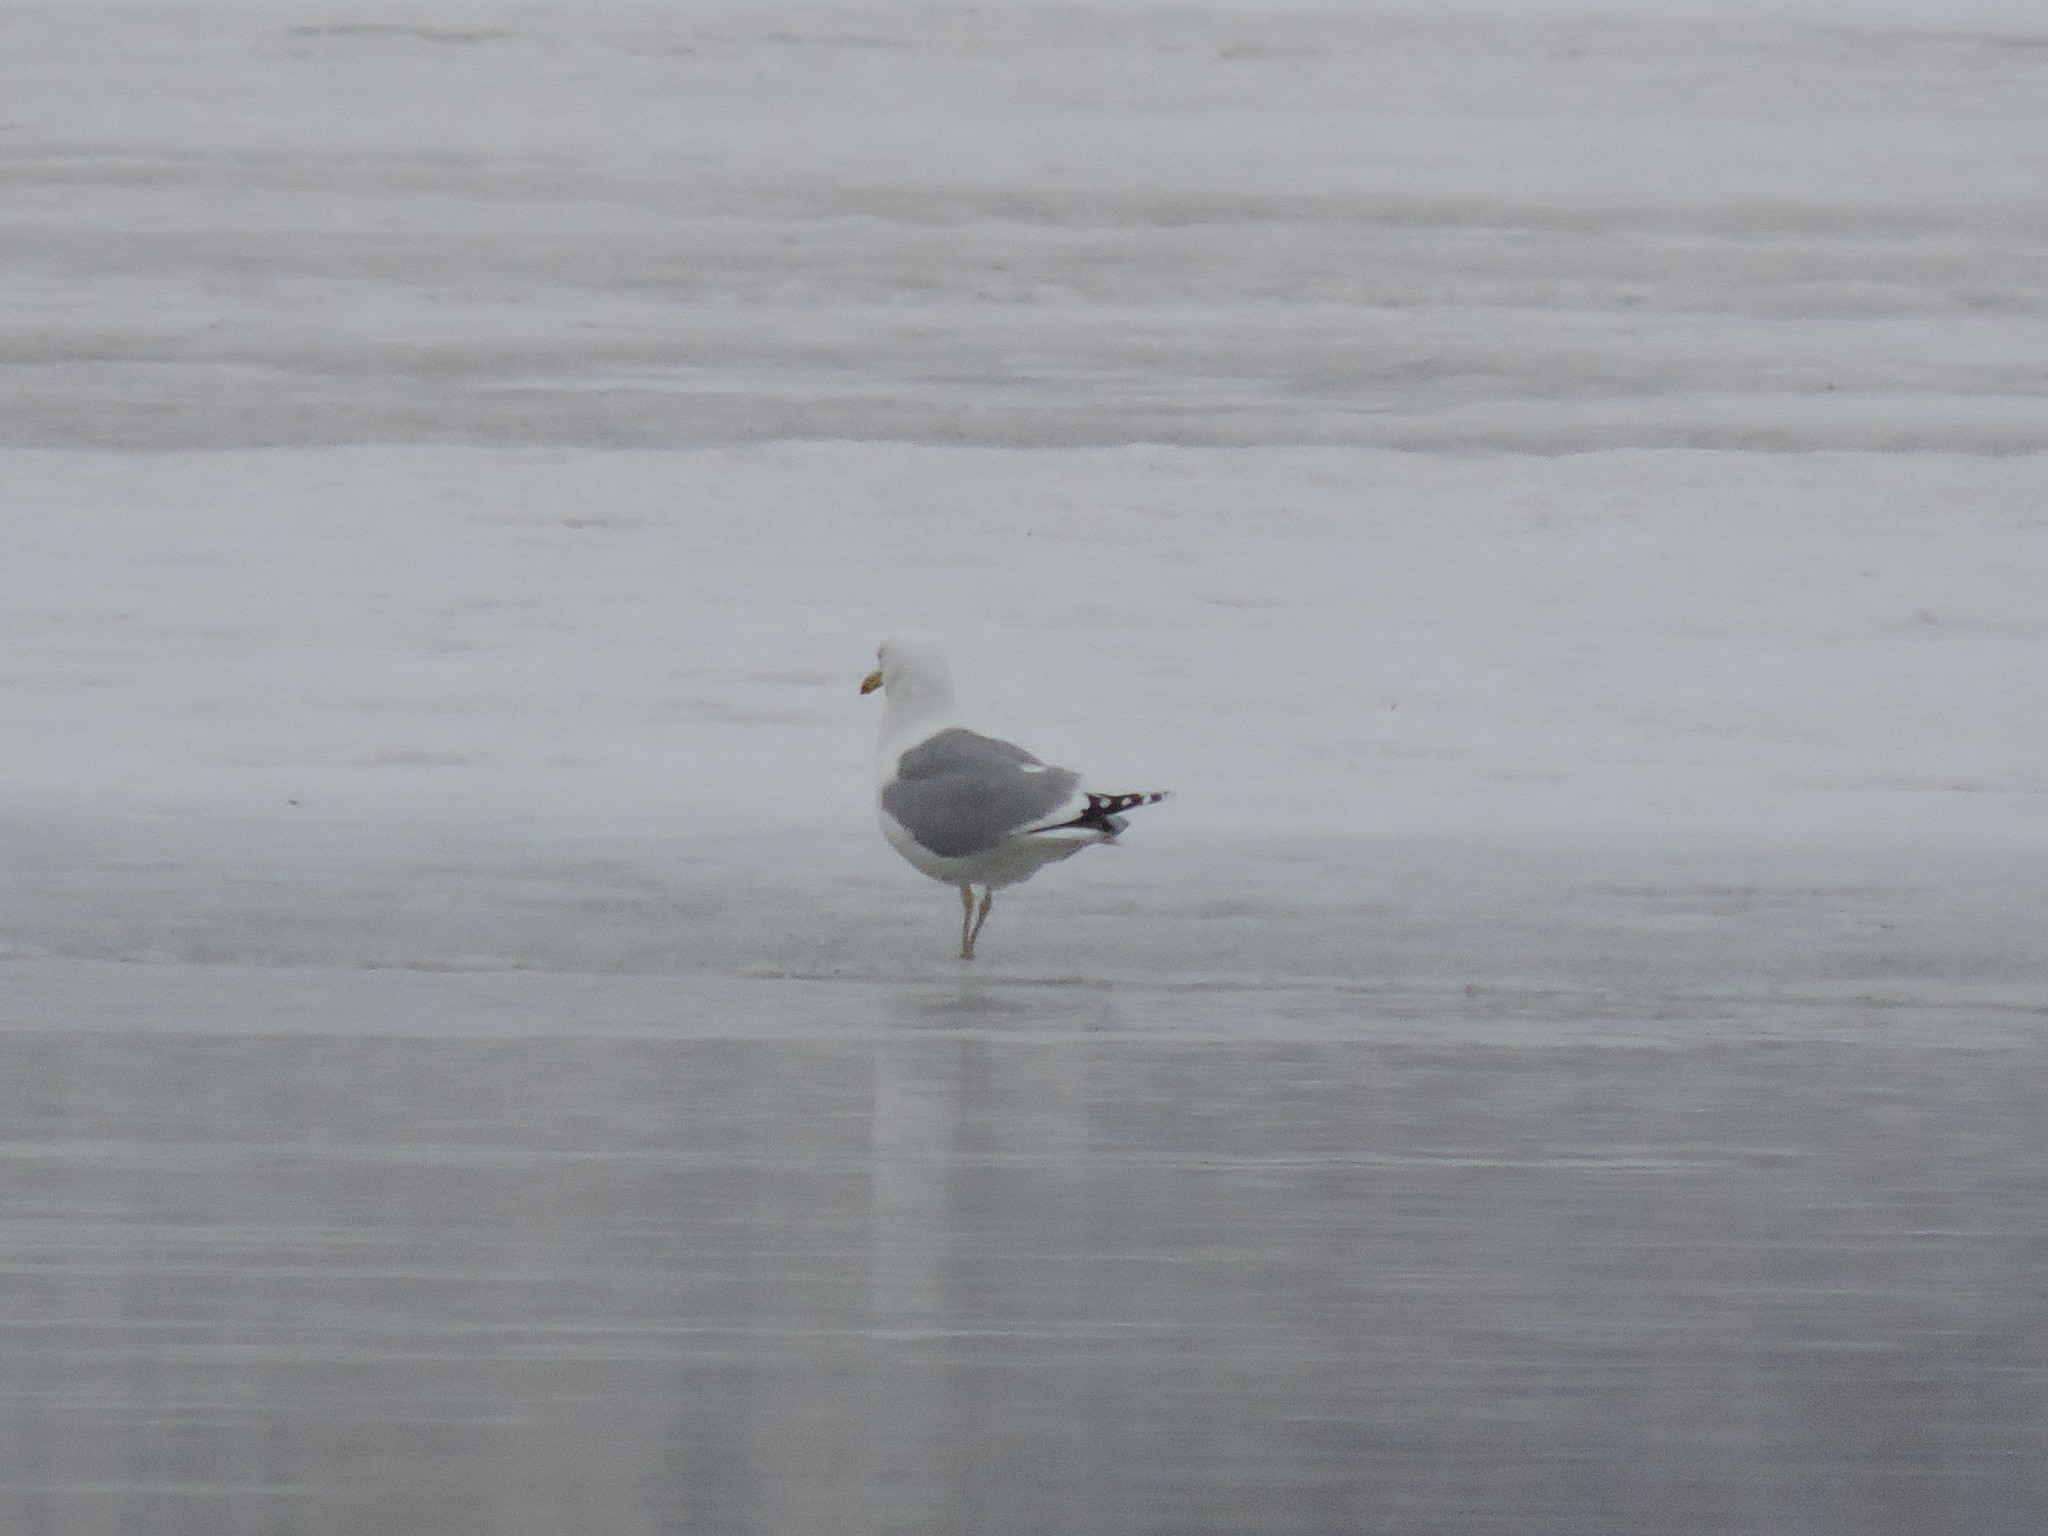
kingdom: Animalia
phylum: Chordata
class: Aves
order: Charadriiformes
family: Laridae
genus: Larus
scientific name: Larus argentatus
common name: Herring gull
